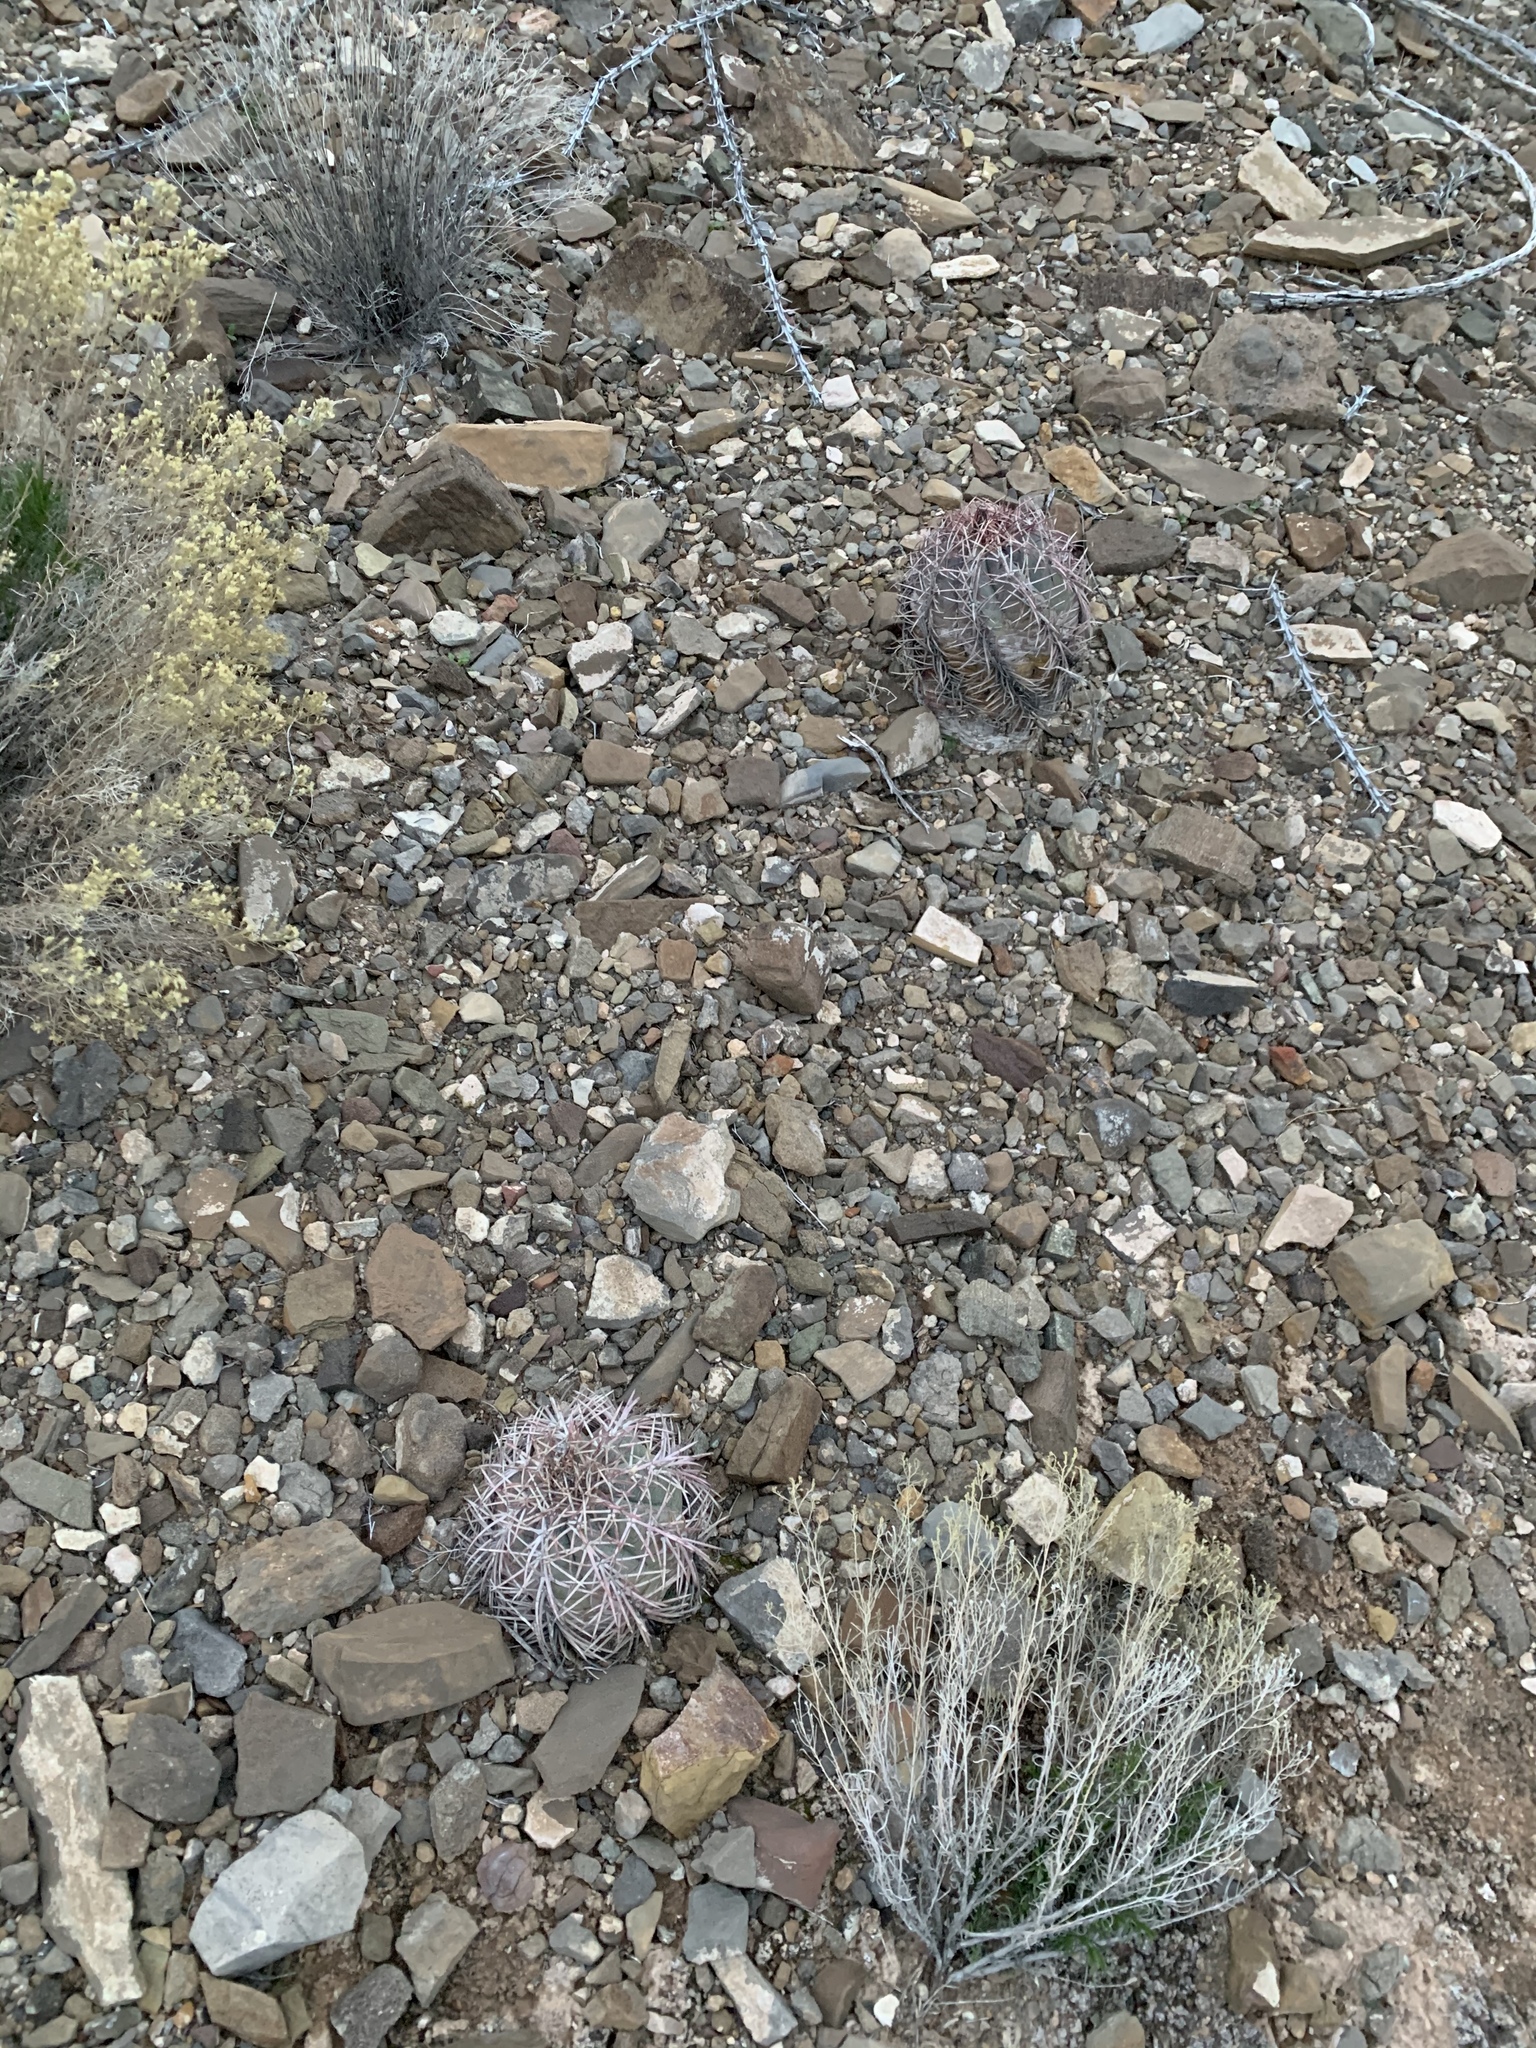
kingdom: Plantae
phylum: Tracheophyta
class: Magnoliopsida
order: Caryophyllales
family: Cactaceae
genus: Echinocactus
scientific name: Echinocactus horizonthalonius
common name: Devilshead
